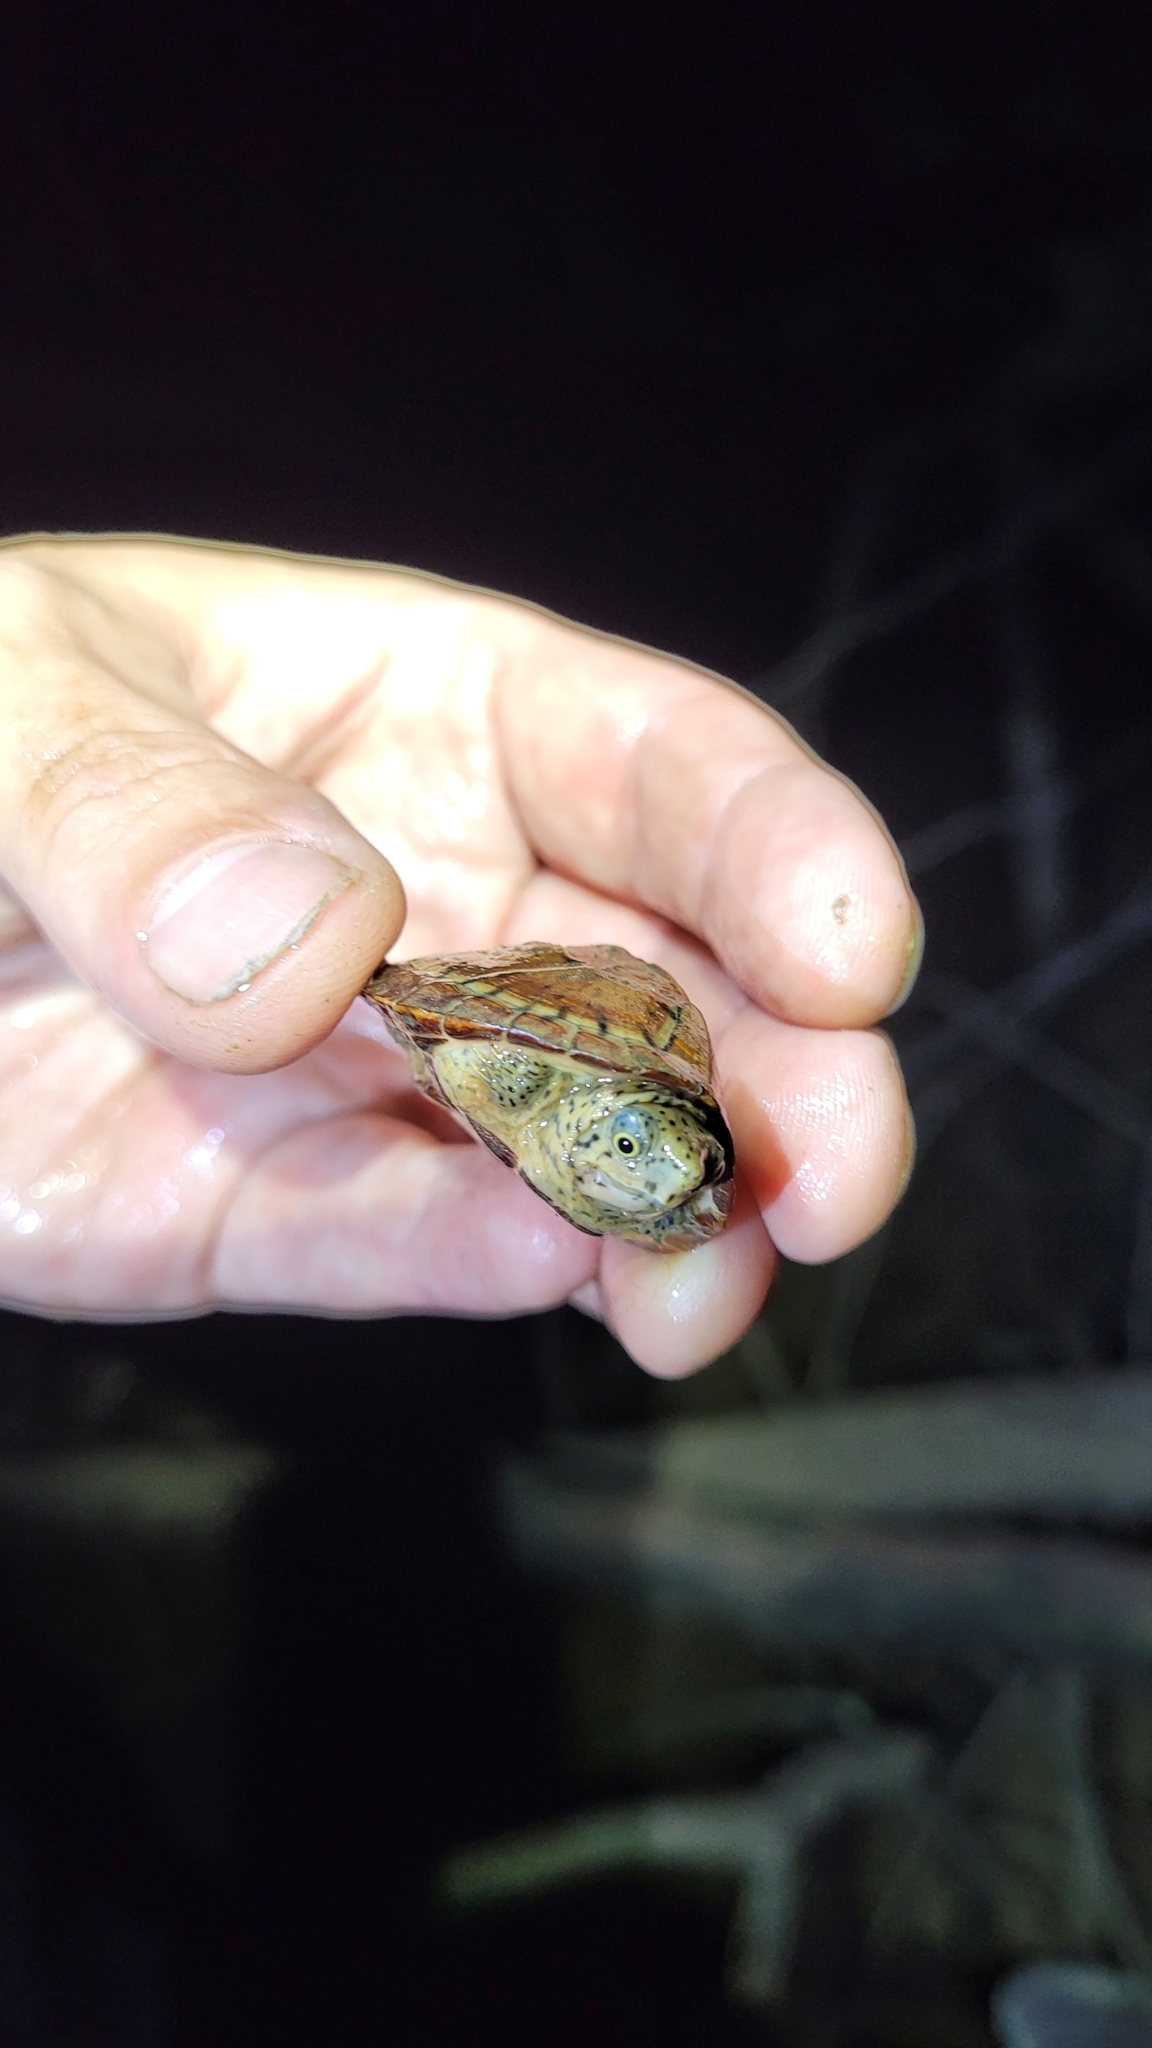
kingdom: Animalia
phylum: Chordata
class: Testudines
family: Kinosternidae
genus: Sternotherus
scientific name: Sternotherus minor
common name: Loggerhead musk turtle
